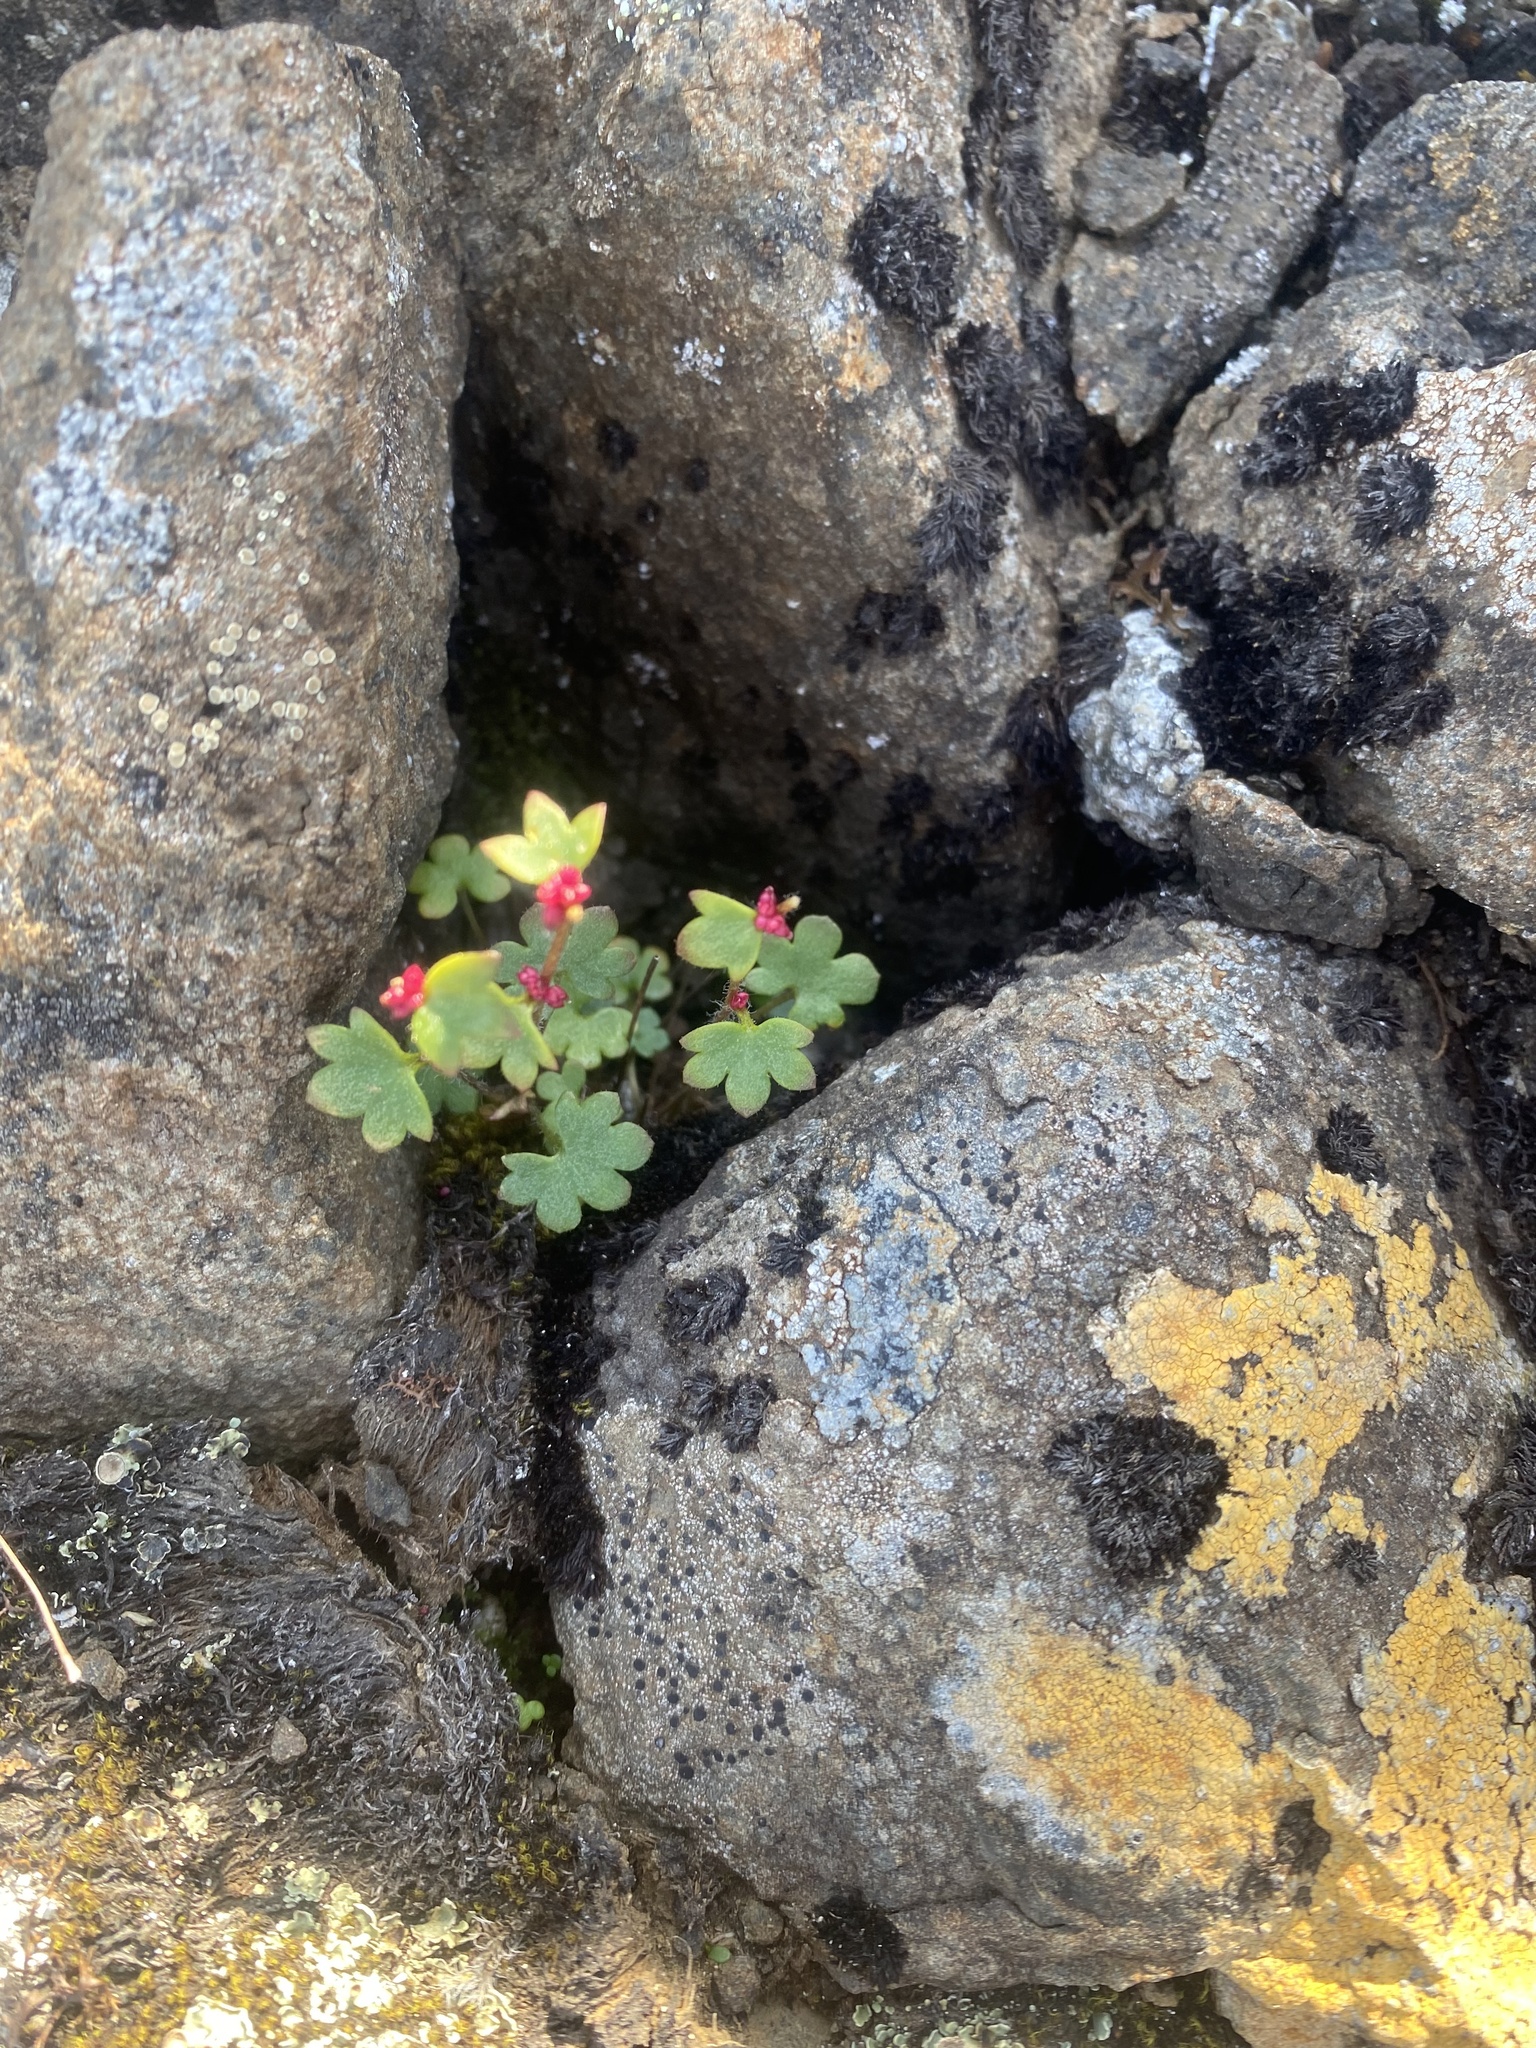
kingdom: Plantae
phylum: Tracheophyta
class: Magnoliopsida
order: Saxifragales
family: Saxifragaceae
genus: Saxifraga
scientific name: Saxifraga cernua
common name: Drooping saxifrage
